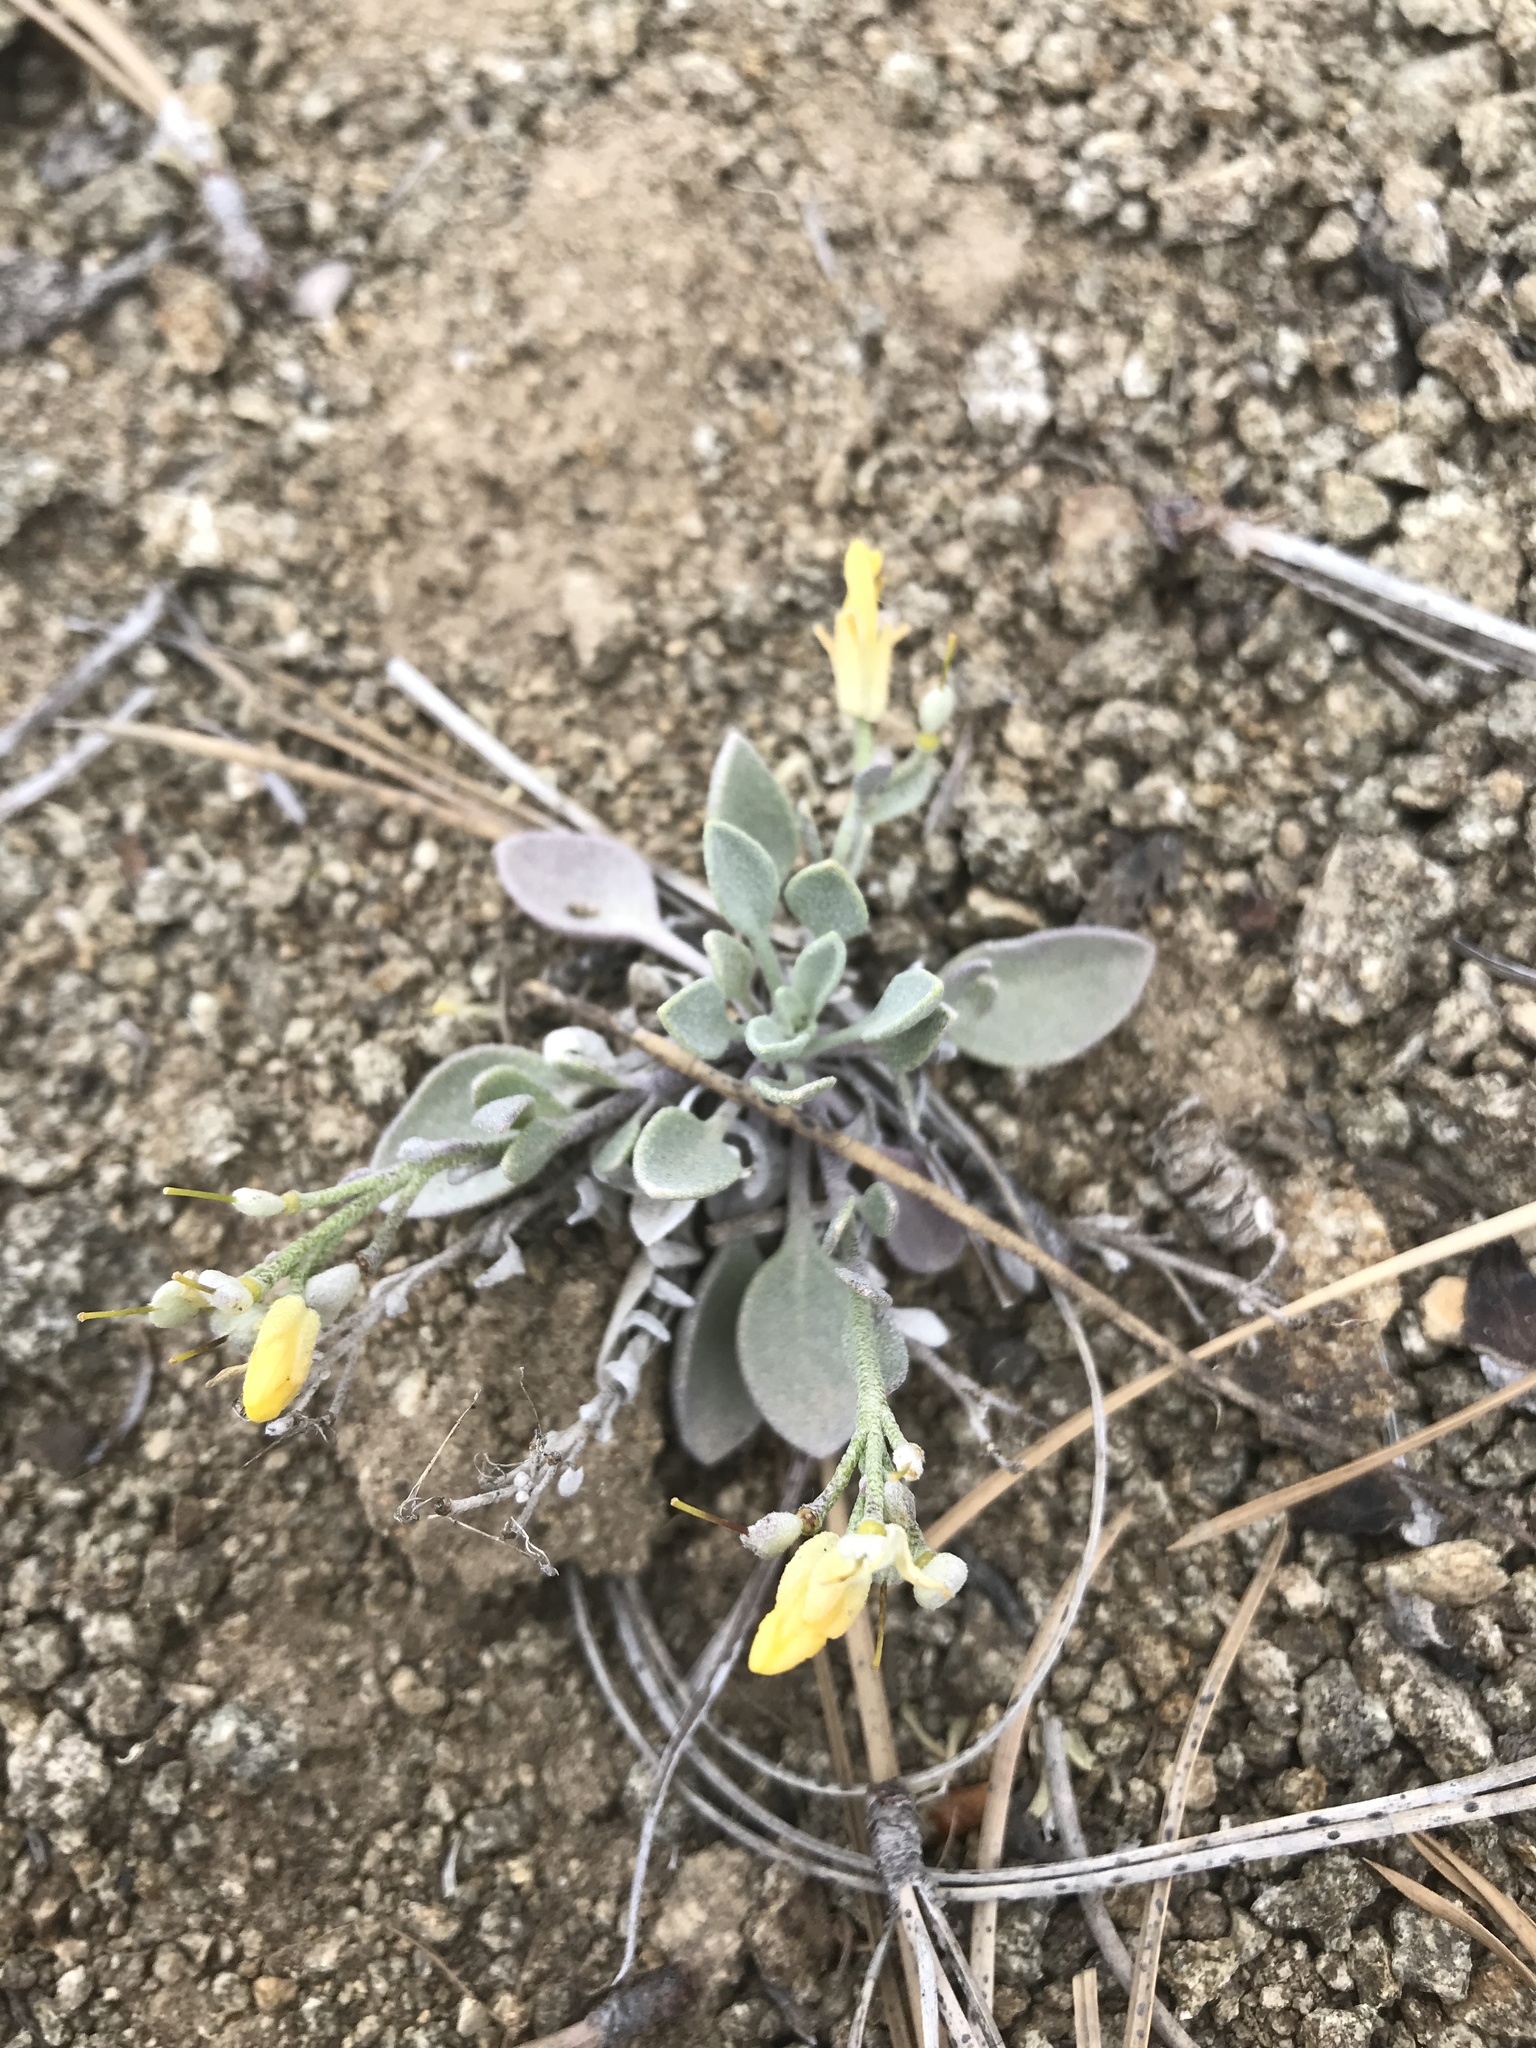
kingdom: Plantae
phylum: Tracheophyta
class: Magnoliopsida
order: Brassicales
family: Brassicaceae
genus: Physaria
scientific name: Physaria alpestris
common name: Washington twinpod
